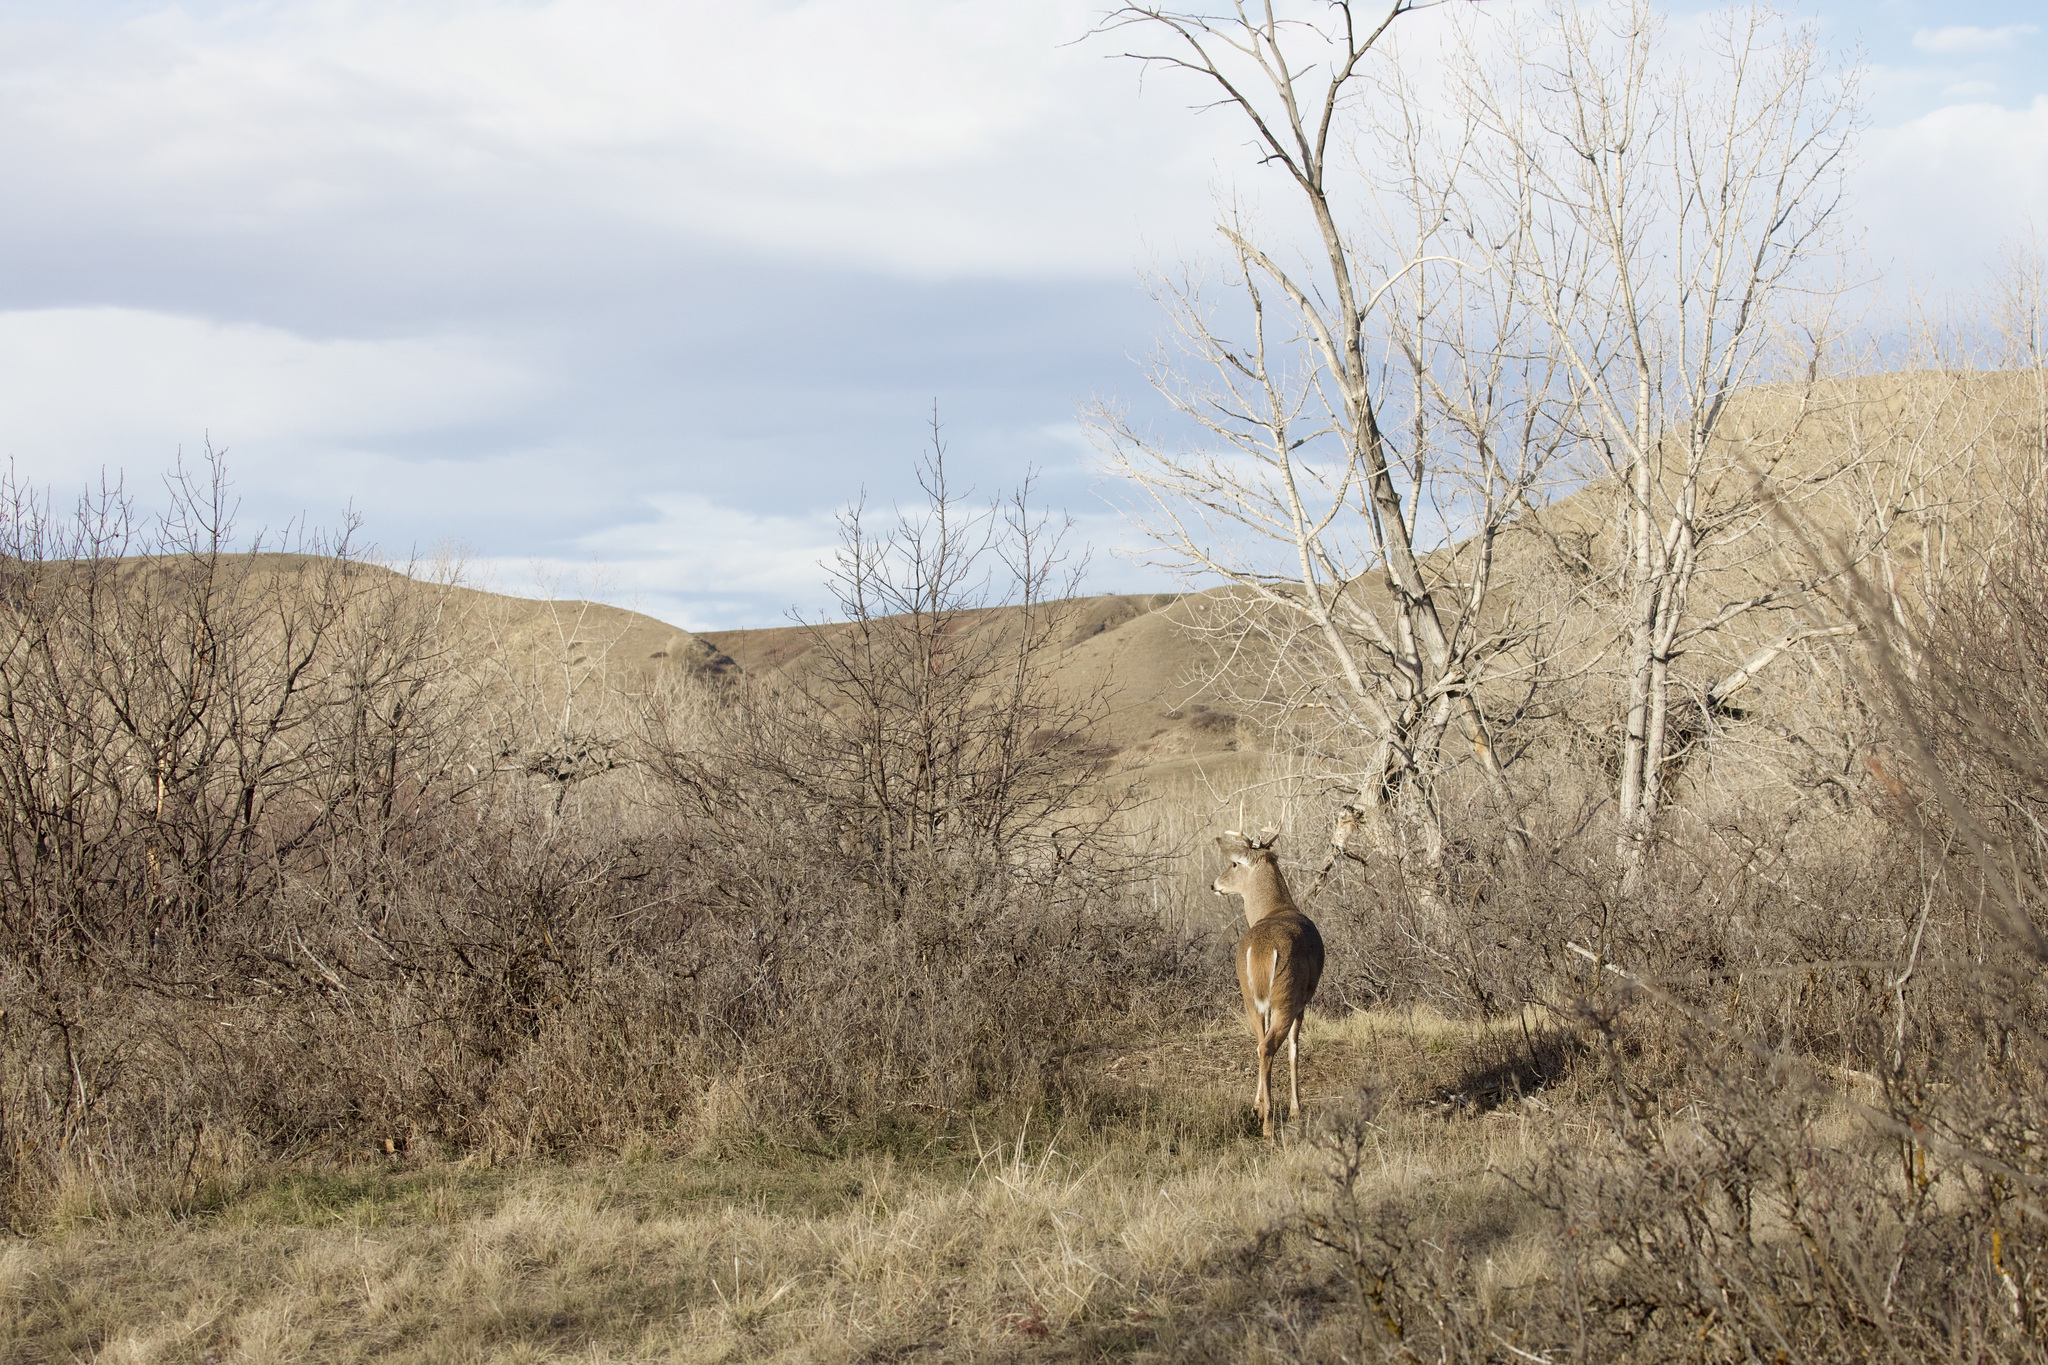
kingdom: Animalia
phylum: Chordata
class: Mammalia
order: Artiodactyla
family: Cervidae
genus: Odocoileus
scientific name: Odocoileus virginianus
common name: White-tailed deer
